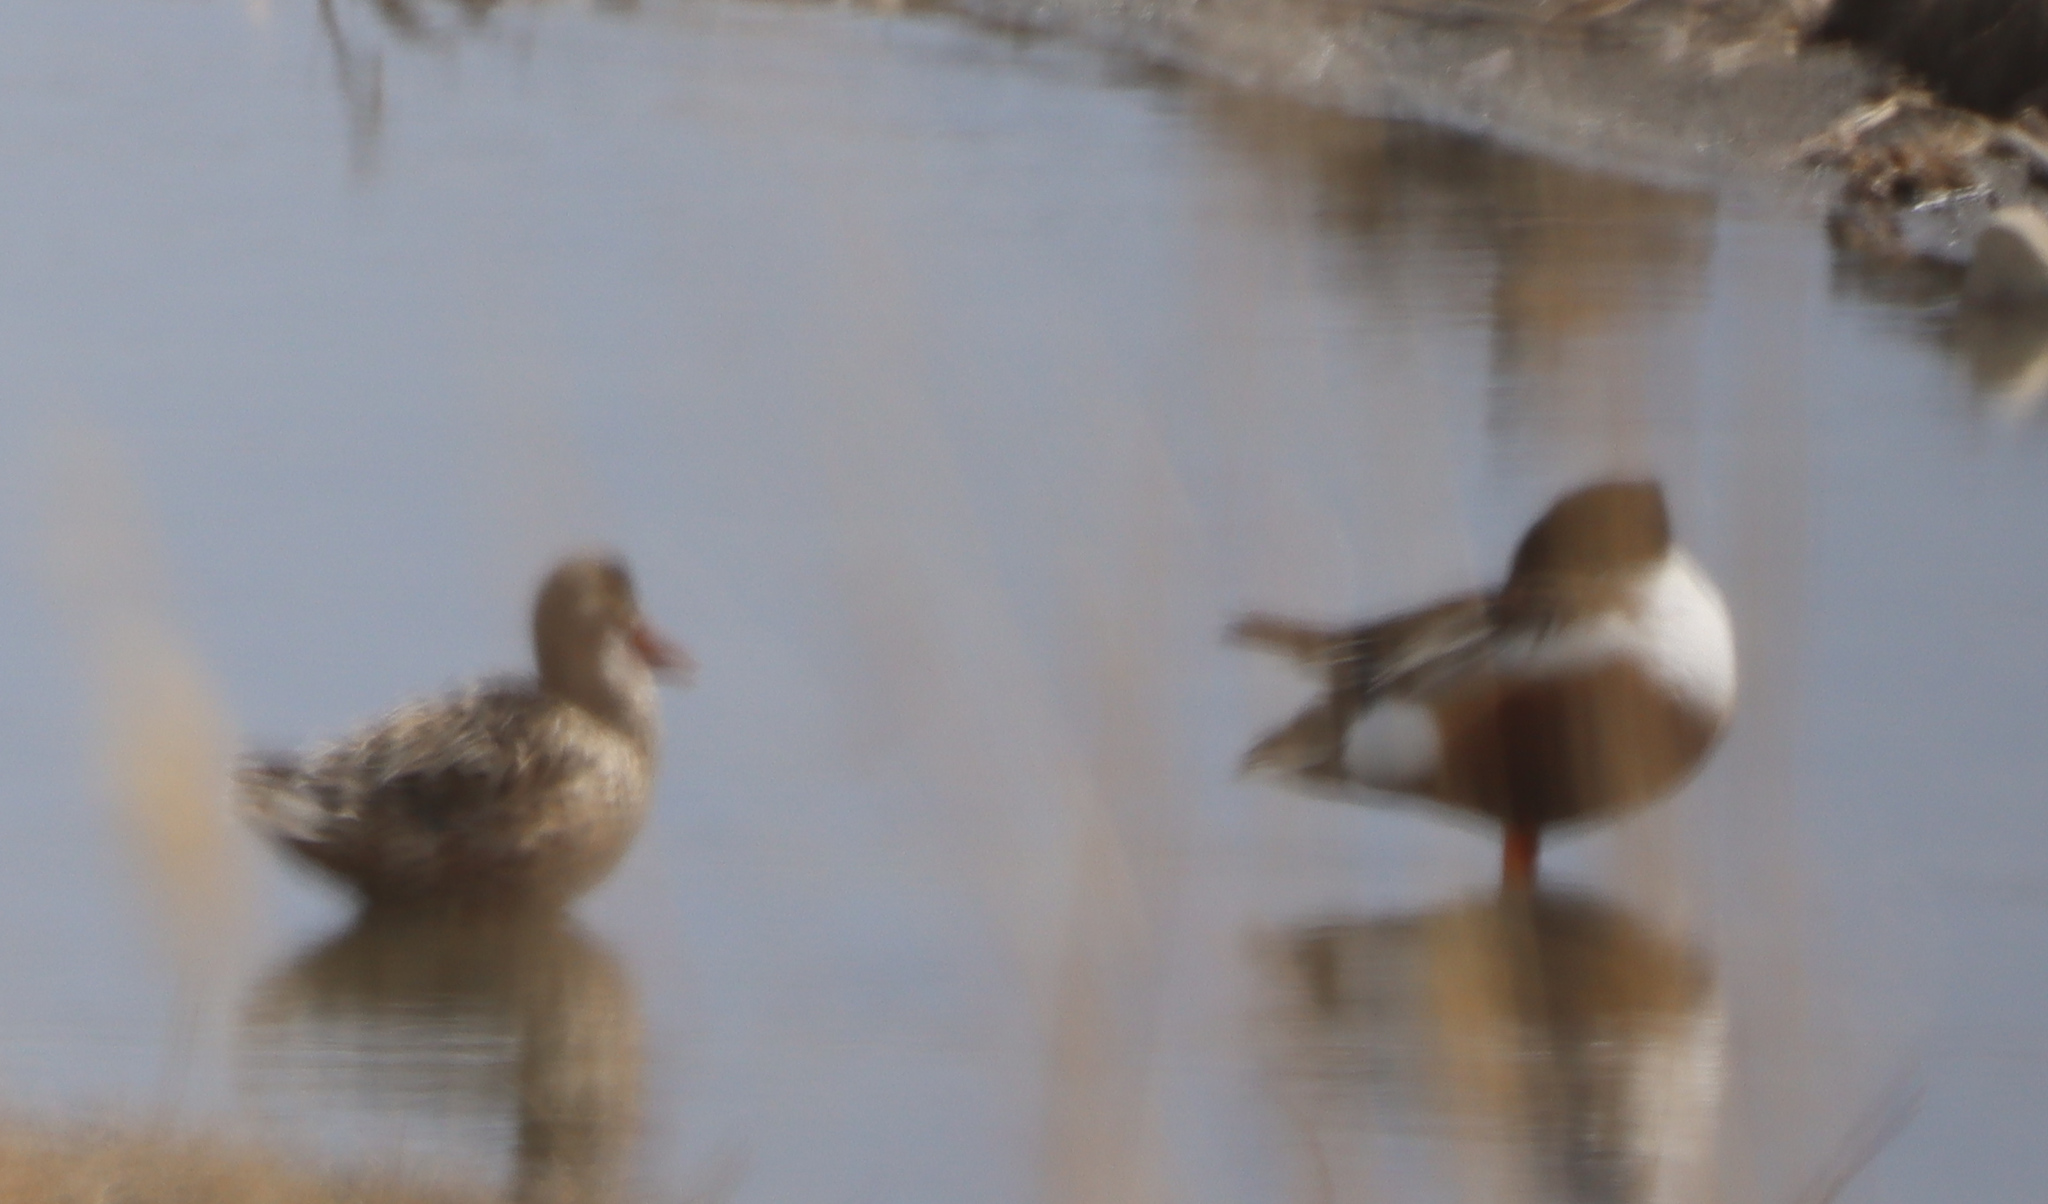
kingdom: Animalia
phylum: Chordata
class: Aves
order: Anseriformes
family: Anatidae
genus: Spatula
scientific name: Spatula clypeata
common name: Northern shoveler
